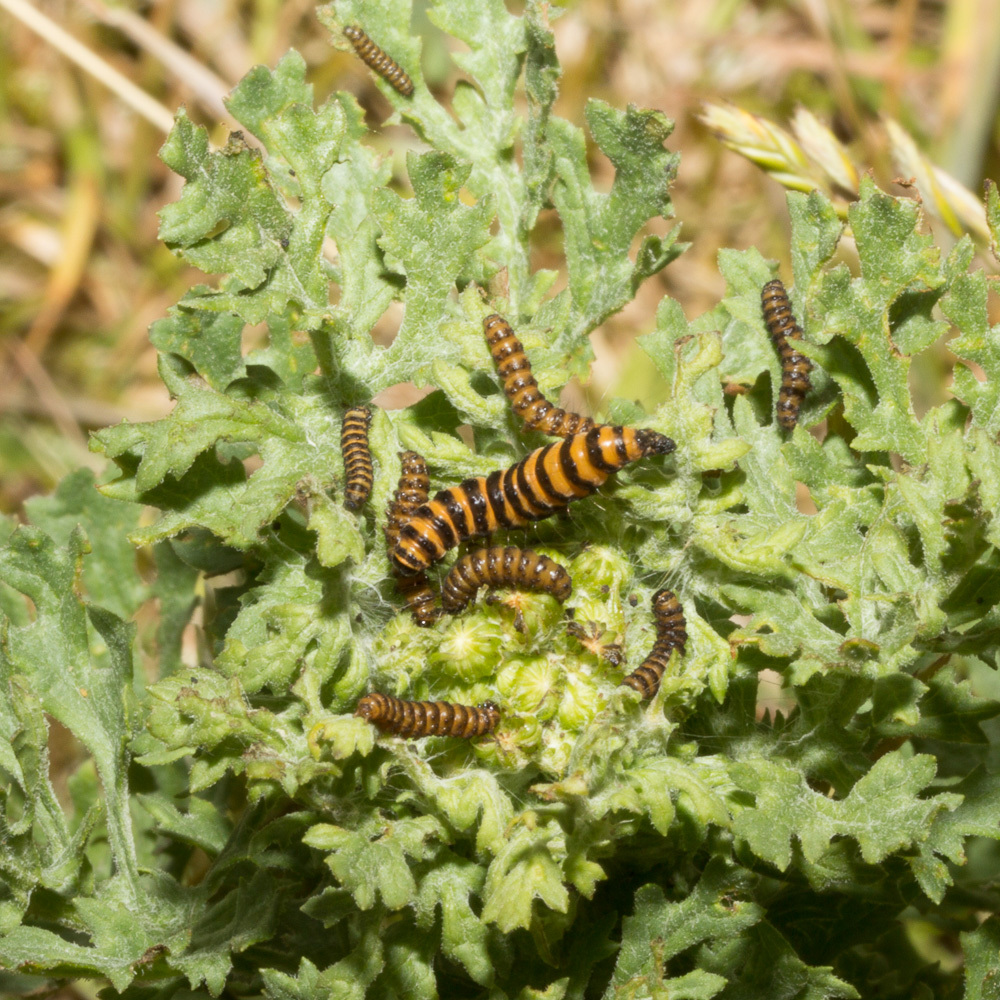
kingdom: Animalia
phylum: Arthropoda
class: Insecta
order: Lepidoptera
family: Erebidae
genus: Tyria
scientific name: Tyria jacobaeae
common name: Cinnabar
